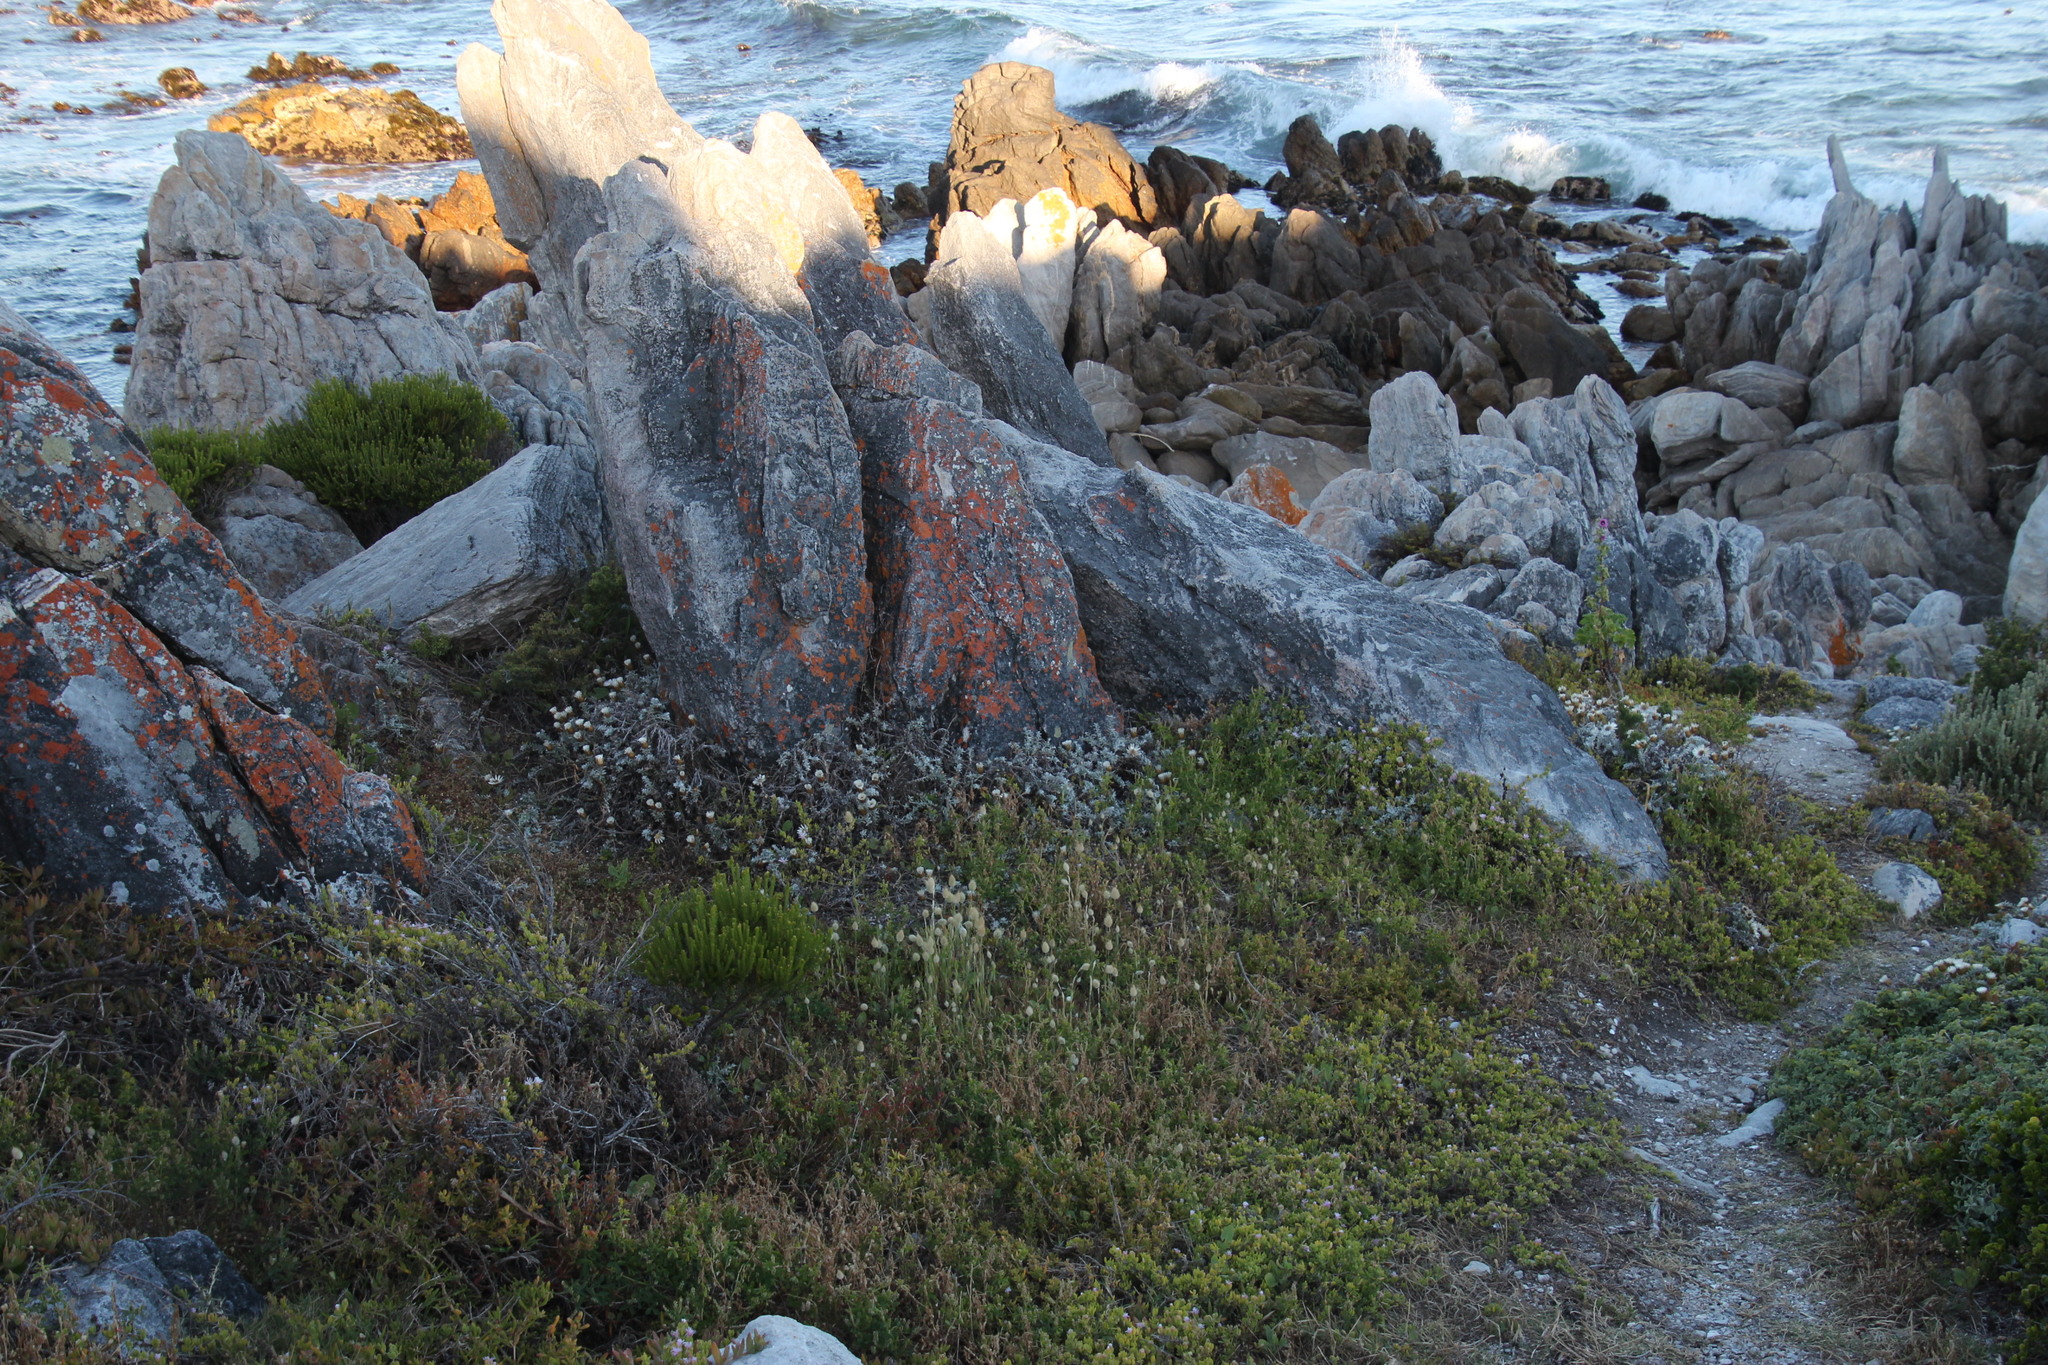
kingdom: Plantae
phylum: Tracheophyta
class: Liliopsida
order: Poales
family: Poaceae
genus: Lagurus
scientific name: Lagurus ovatus
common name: Hare's-tail
